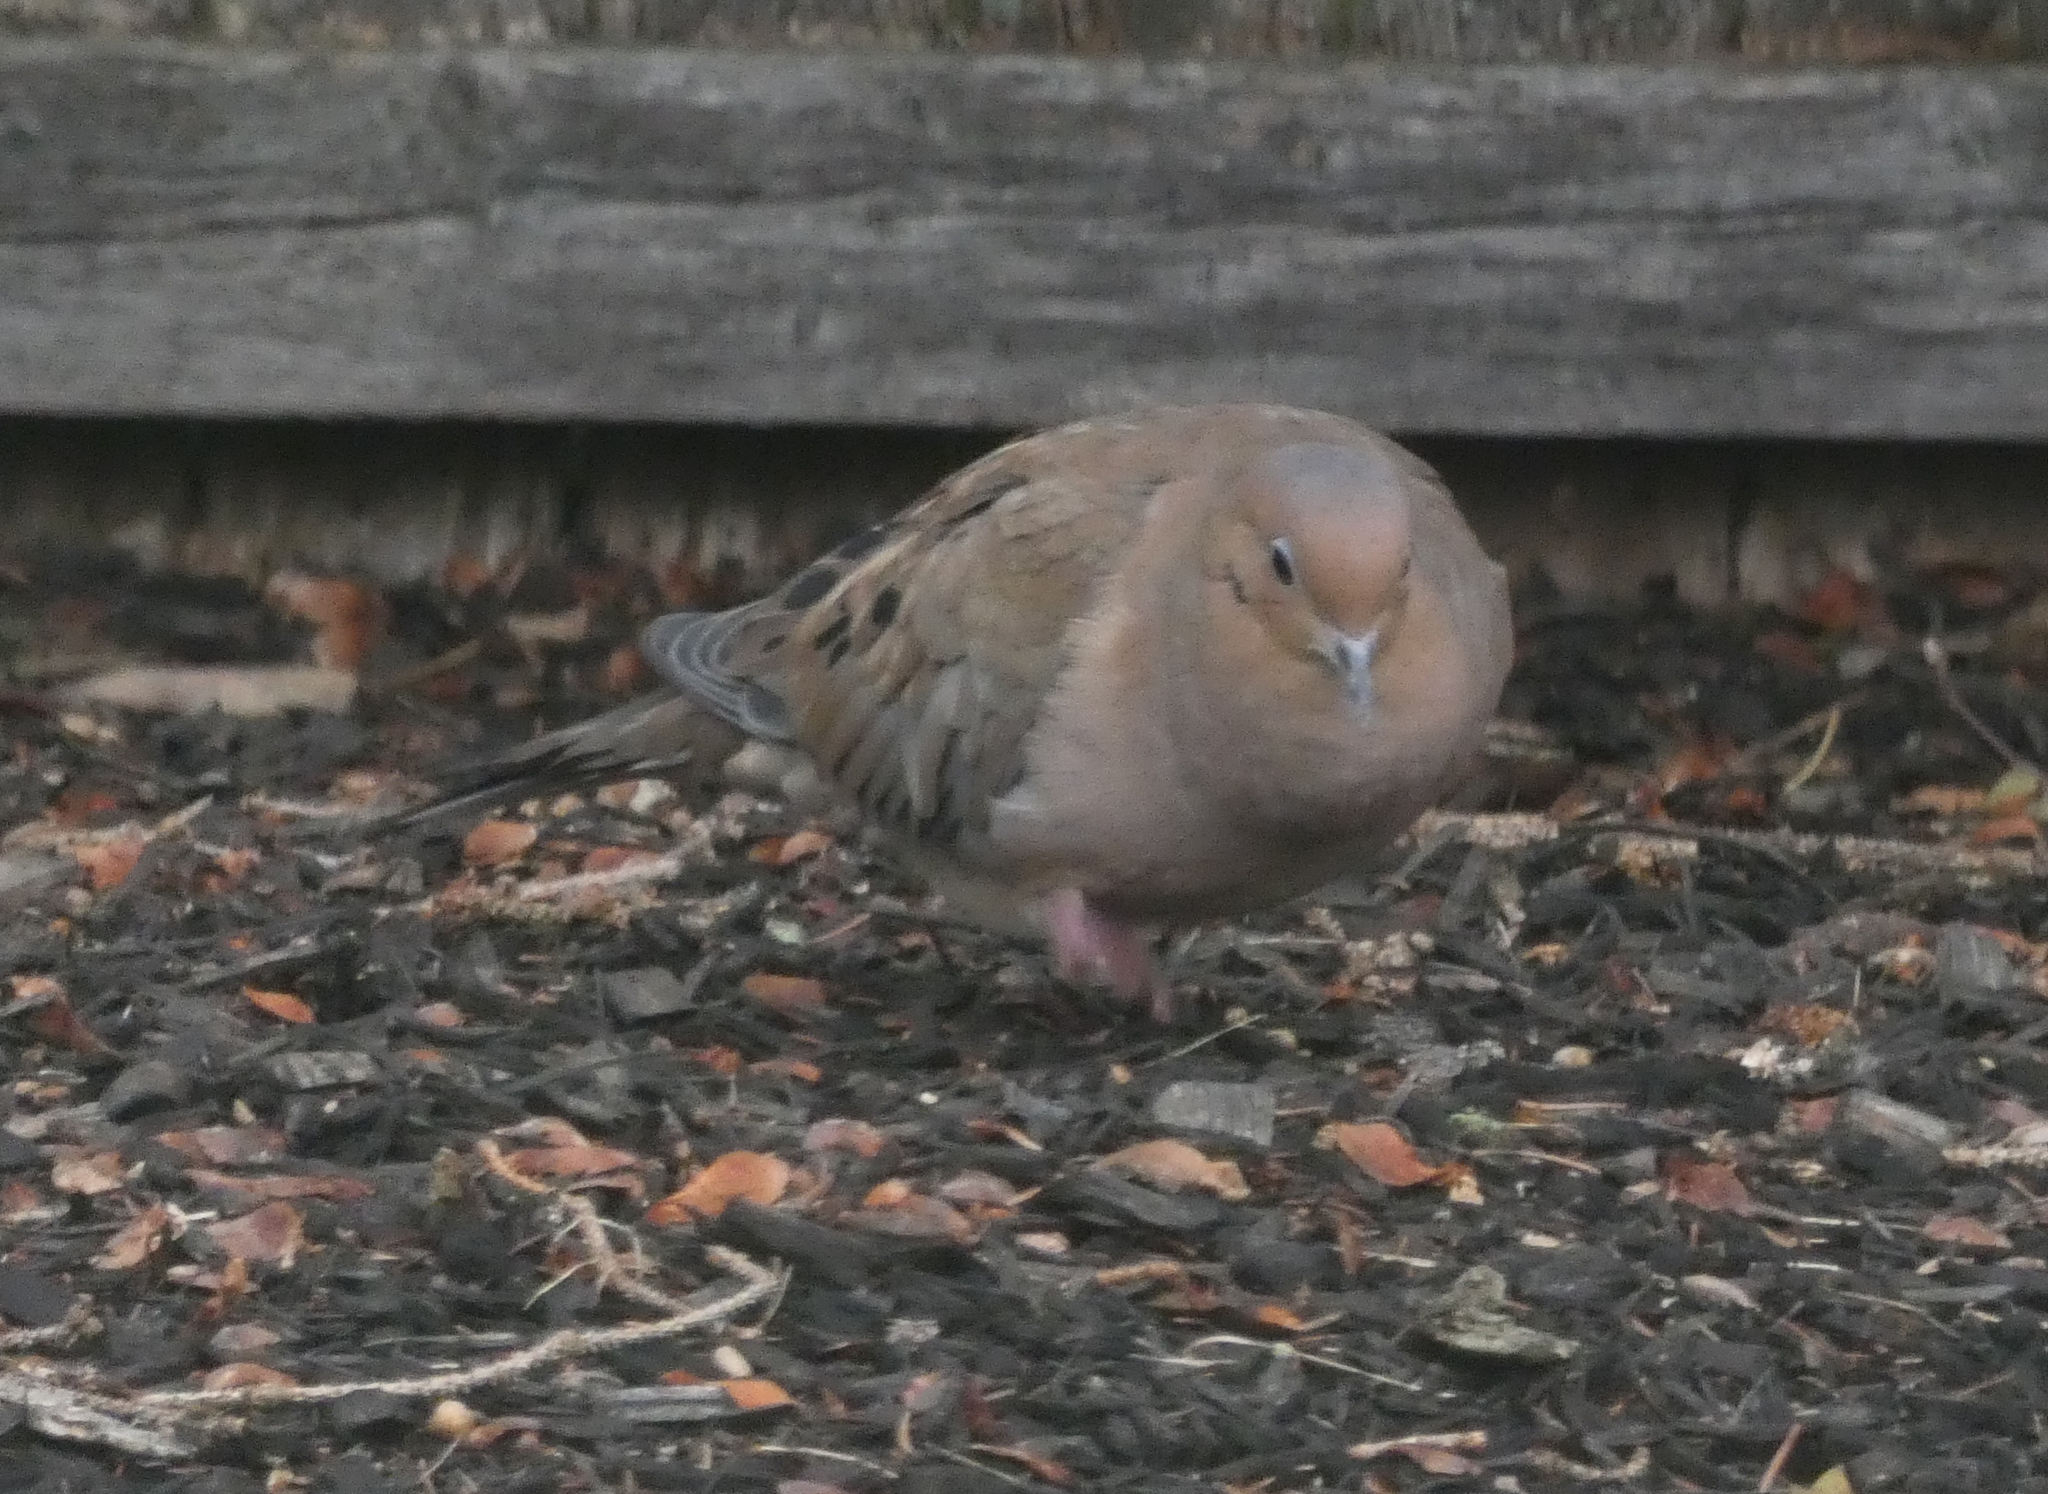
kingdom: Animalia
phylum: Chordata
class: Aves
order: Columbiformes
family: Columbidae
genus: Zenaida
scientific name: Zenaida macroura
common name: Mourning dove
